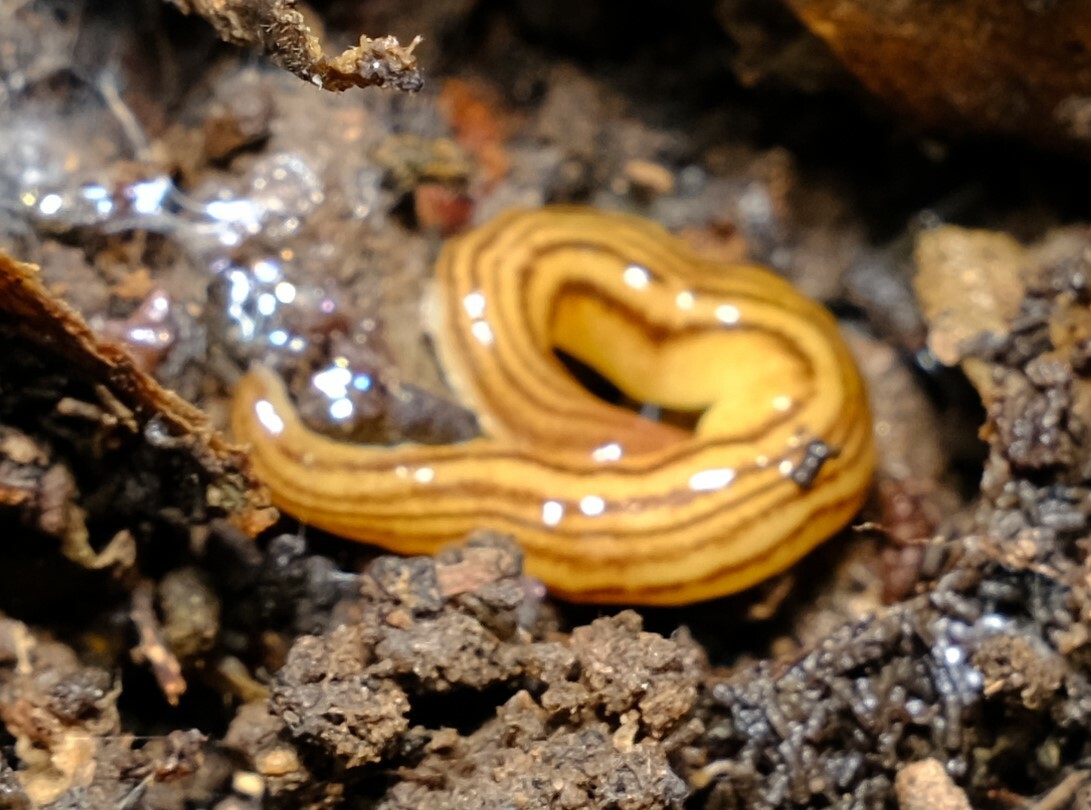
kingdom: Animalia
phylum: Platyhelminthes
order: Tricladida
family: Geoplanidae
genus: Fletchamia
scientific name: Fletchamia quinquelineata
